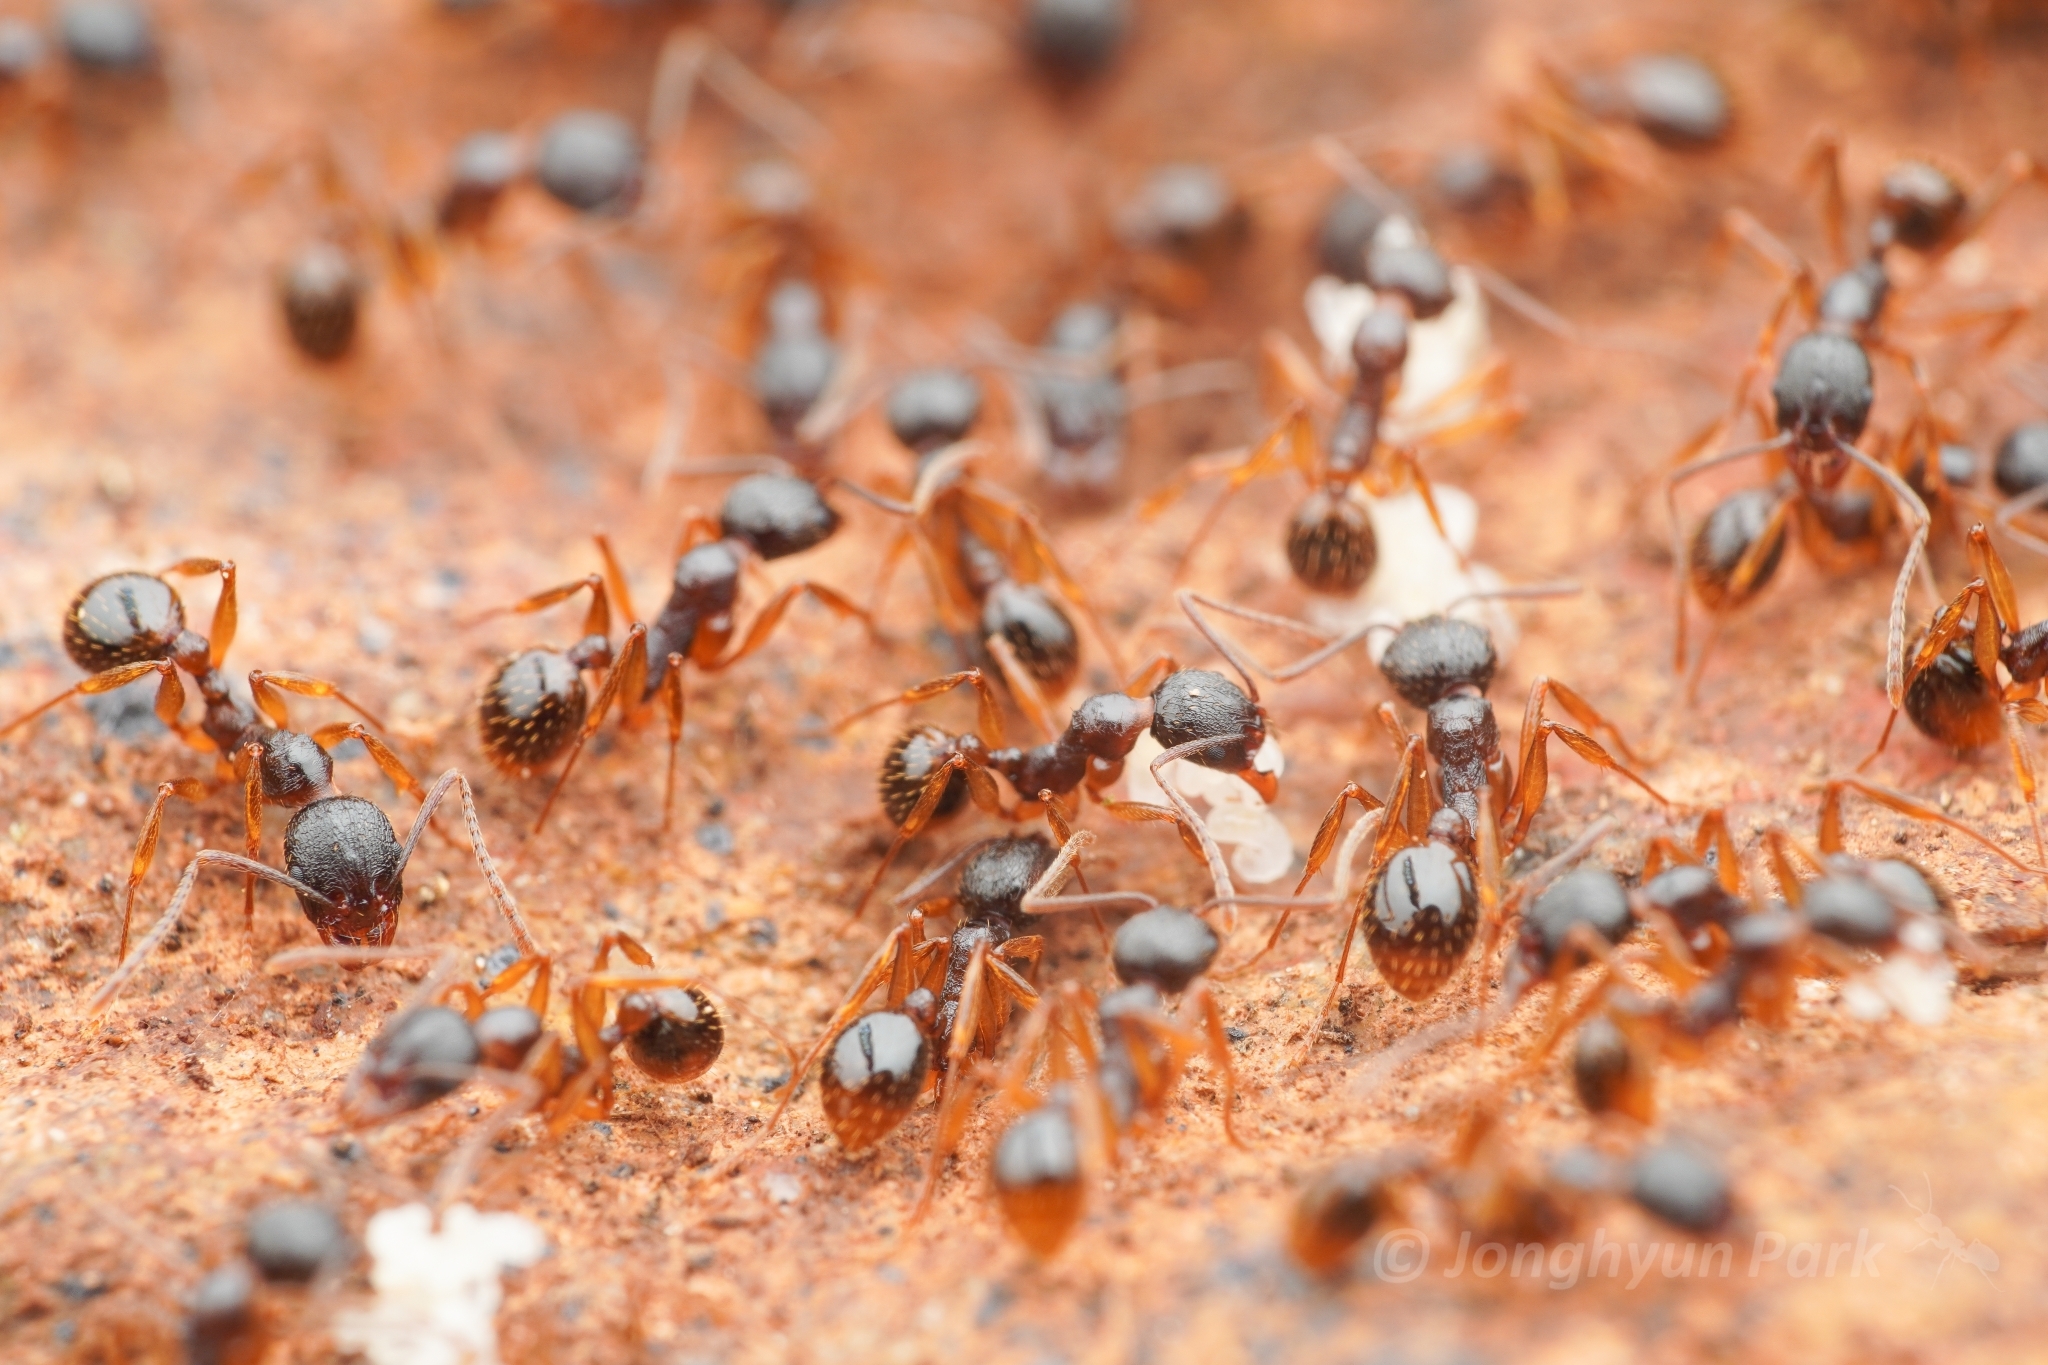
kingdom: Animalia
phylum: Arthropoda
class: Insecta
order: Hymenoptera
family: Formicidae
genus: Aphaenogaster
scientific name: Aphaenogaster japonica
